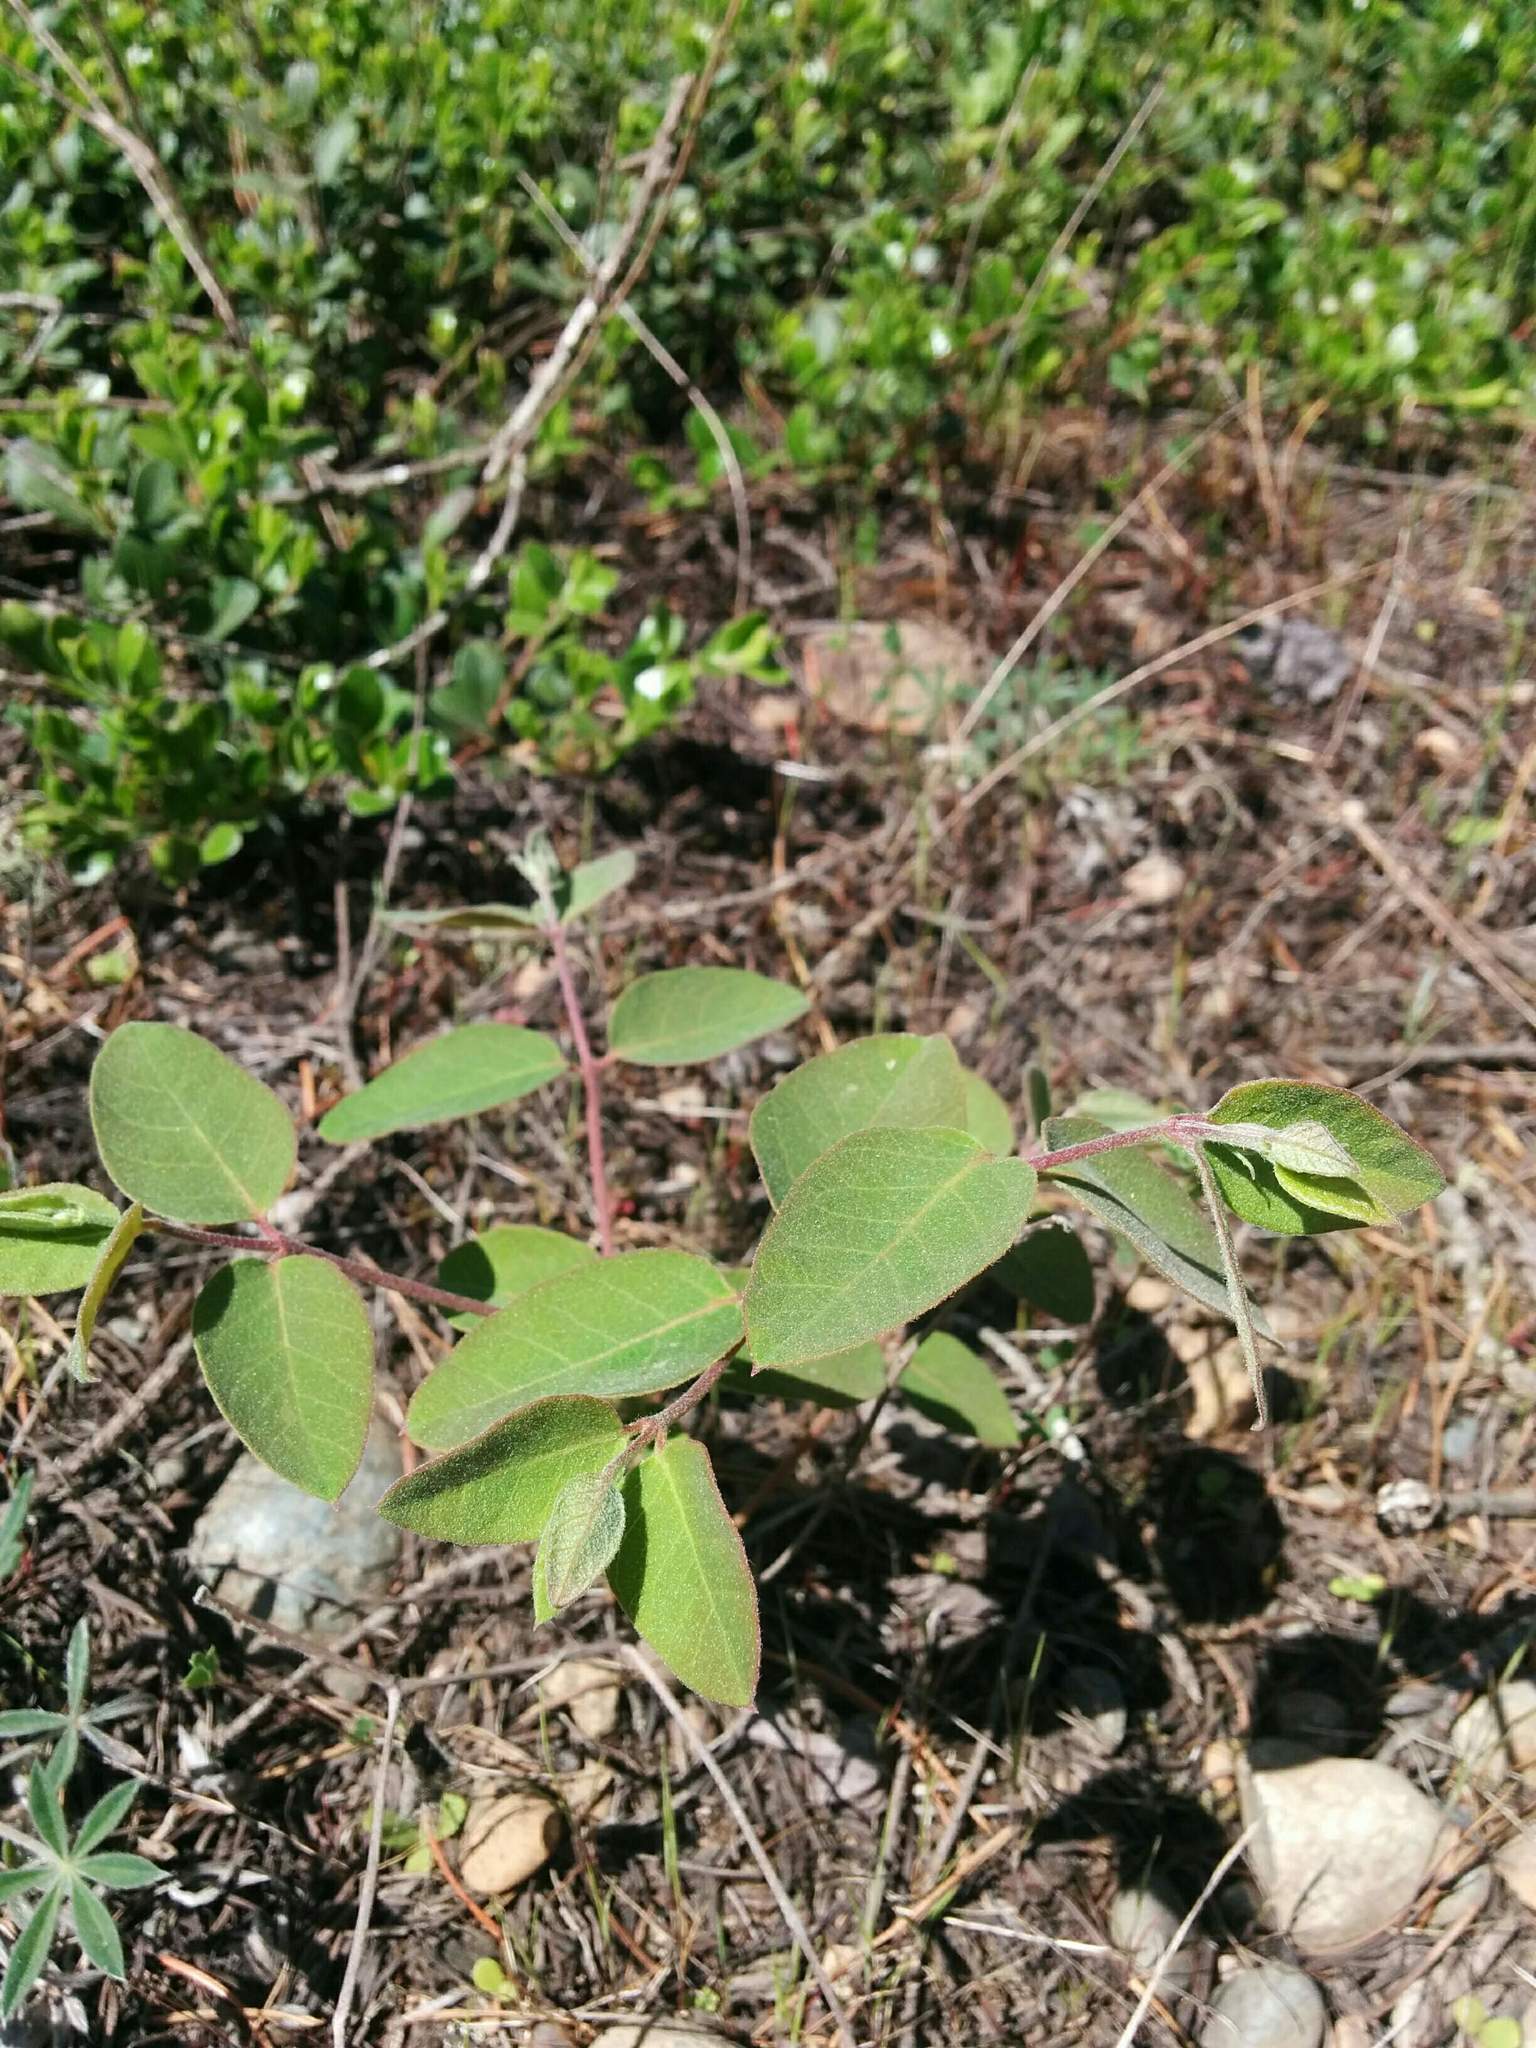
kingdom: Plantae
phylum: Tracheophyta
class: Magnoliopsida
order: Gentianales
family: Apocynaceae
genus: Apocynum
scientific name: Apocynum androsaemifolium
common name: Spreading dogbane
